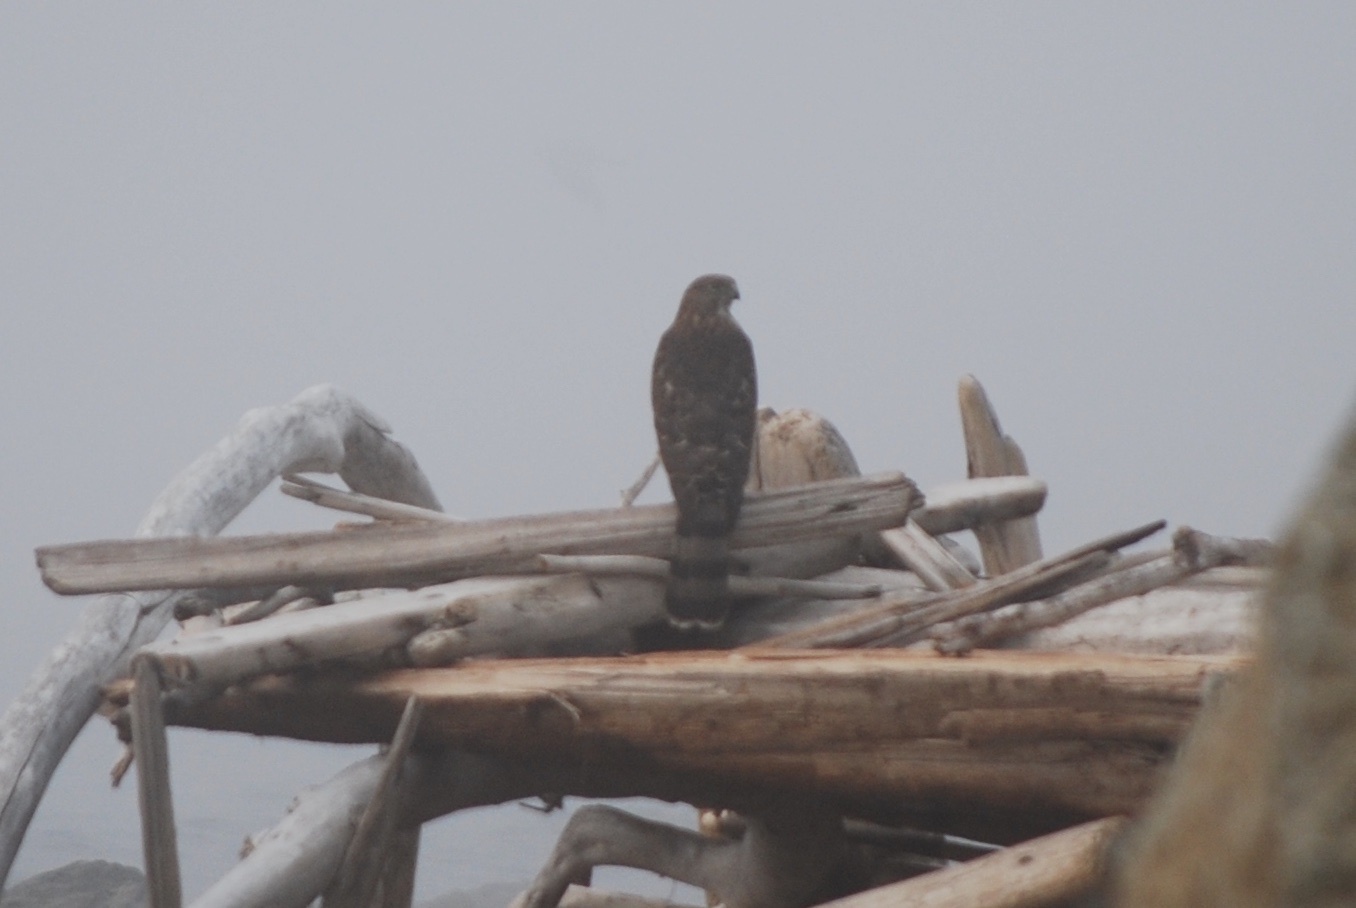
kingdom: Animalia
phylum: Chordata
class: Aves
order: Accipitriformes
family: Accipitridae
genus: Accipiter
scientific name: Accipiter cooperii
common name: Cooper's hawk
